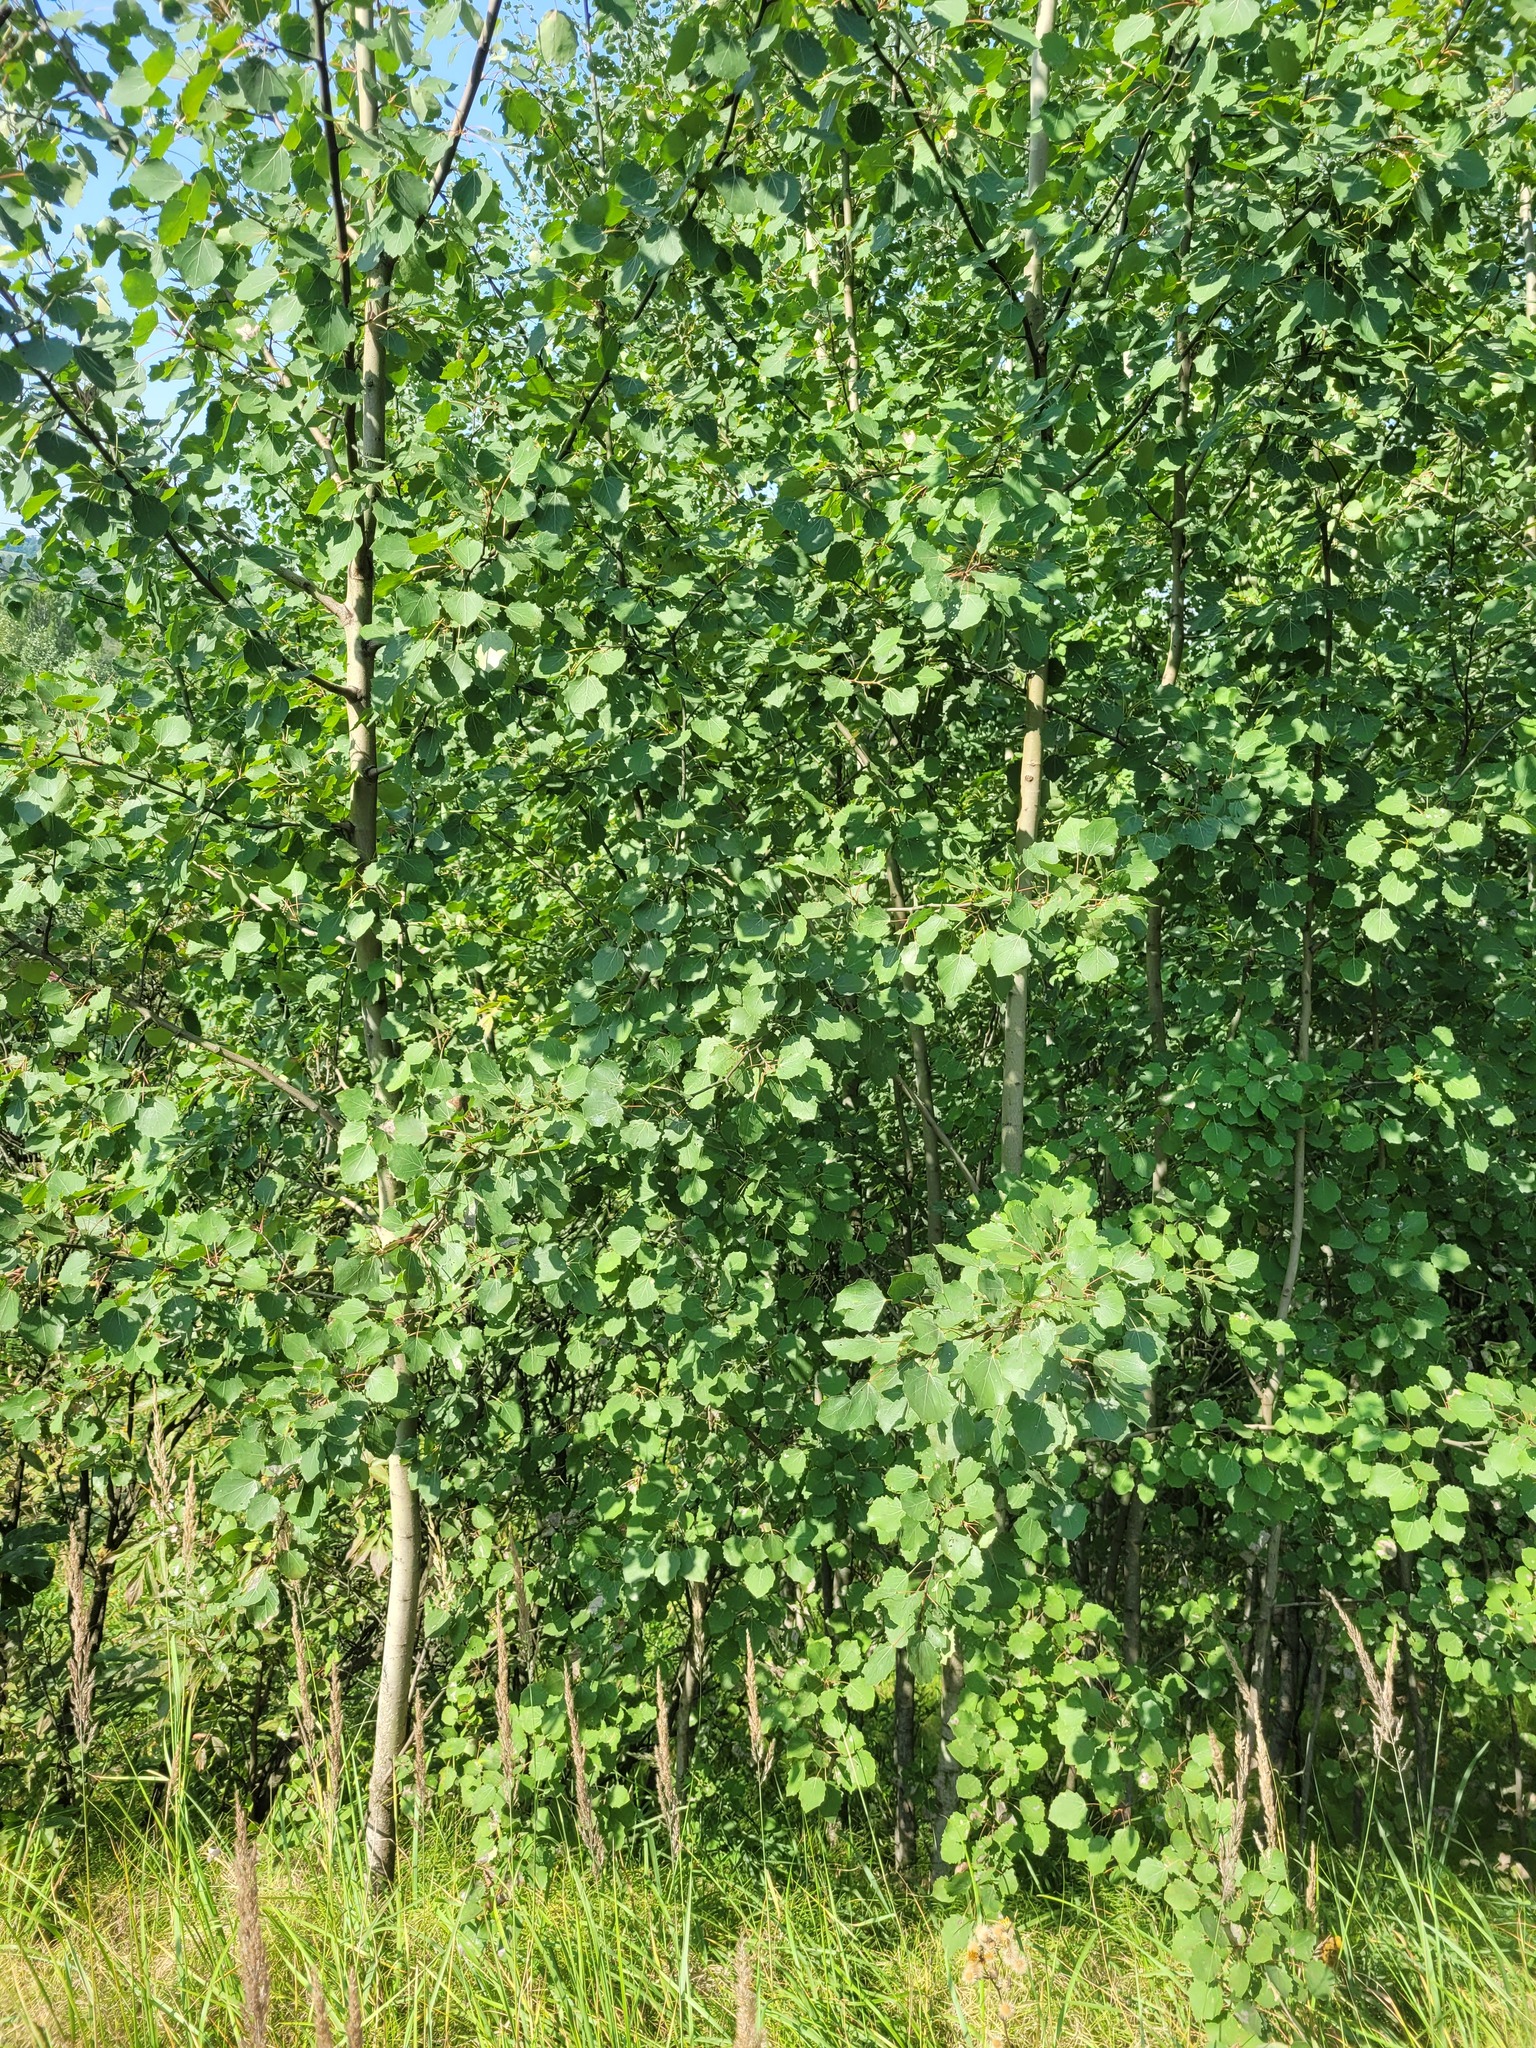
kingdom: Plantae
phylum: Tracheophyta
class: Magnoliopsida
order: Malpighiales
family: Salicaceae
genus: Populus
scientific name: Populus tremula
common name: European aspen
